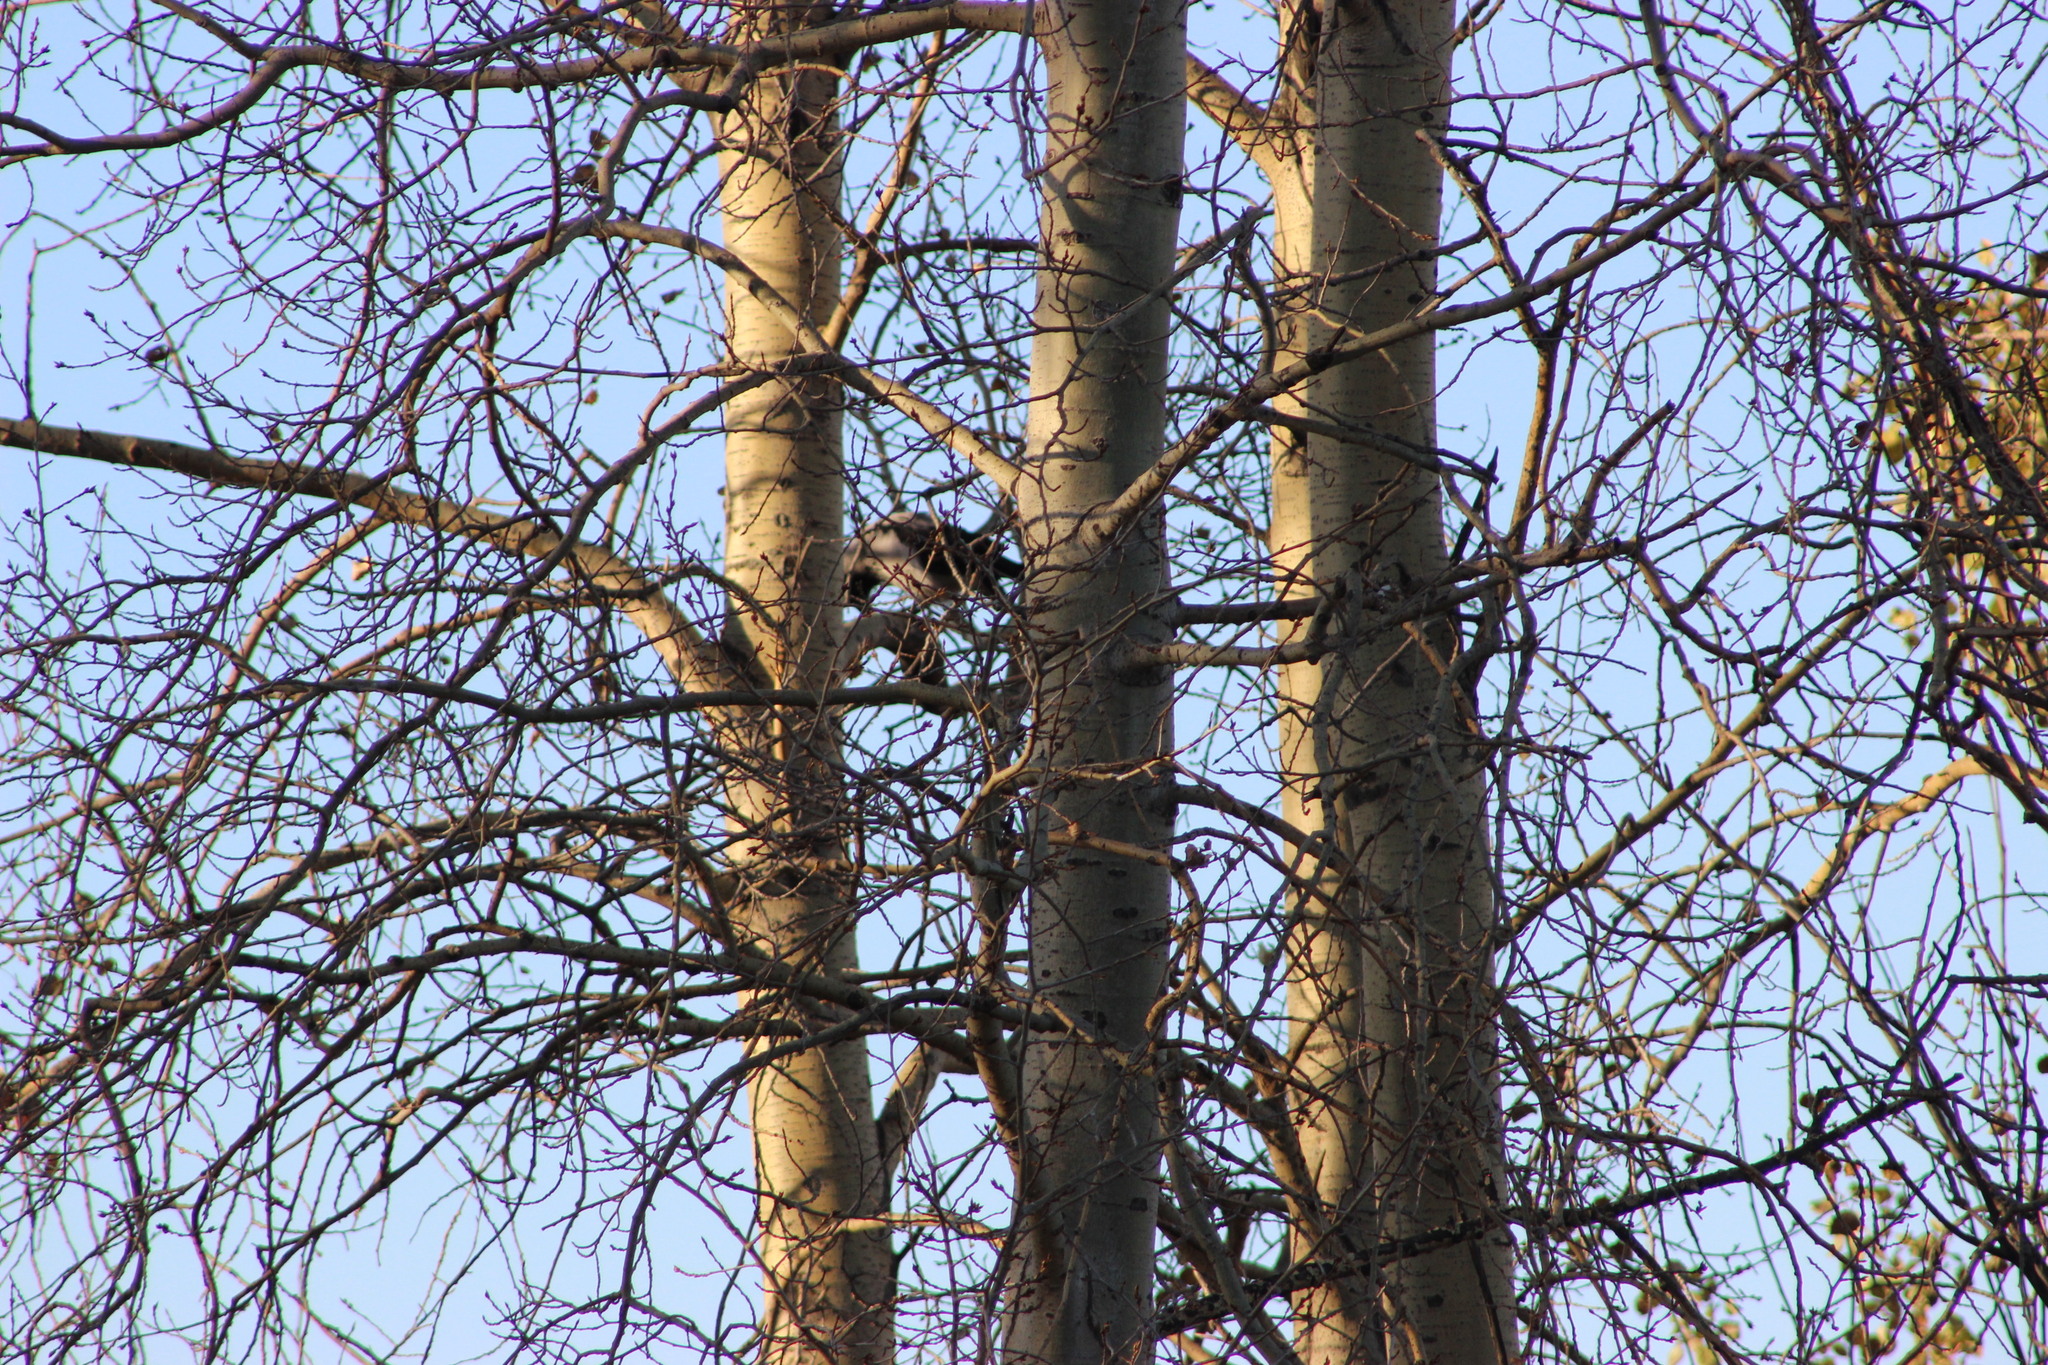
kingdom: Animalia
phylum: Chordata
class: Aves
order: Passeriformes
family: Corvidae
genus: Corvus
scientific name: Corvus cornix
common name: Hooded crow
